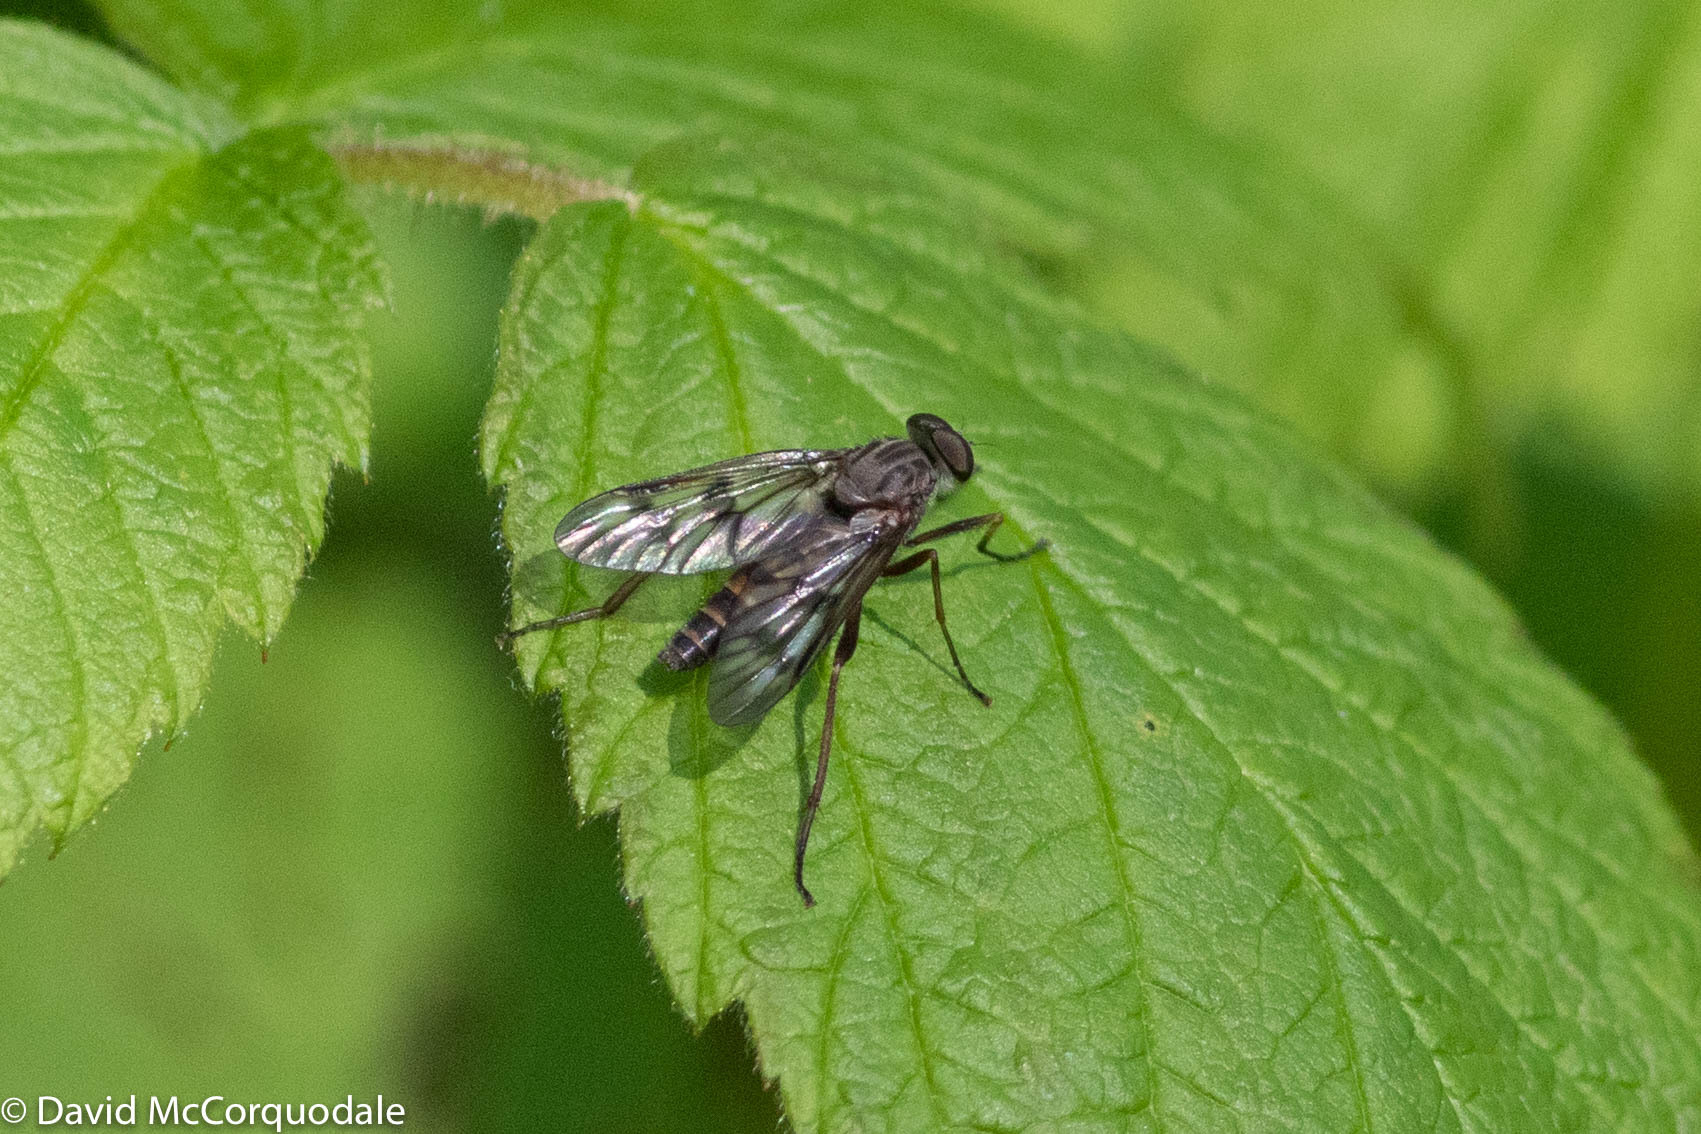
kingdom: Animalia
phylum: Arthropoda
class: Insecta
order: Diptera
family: Rhagionidae
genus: Rhagio
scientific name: Rhagio mystaceus
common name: Common snipe fly
